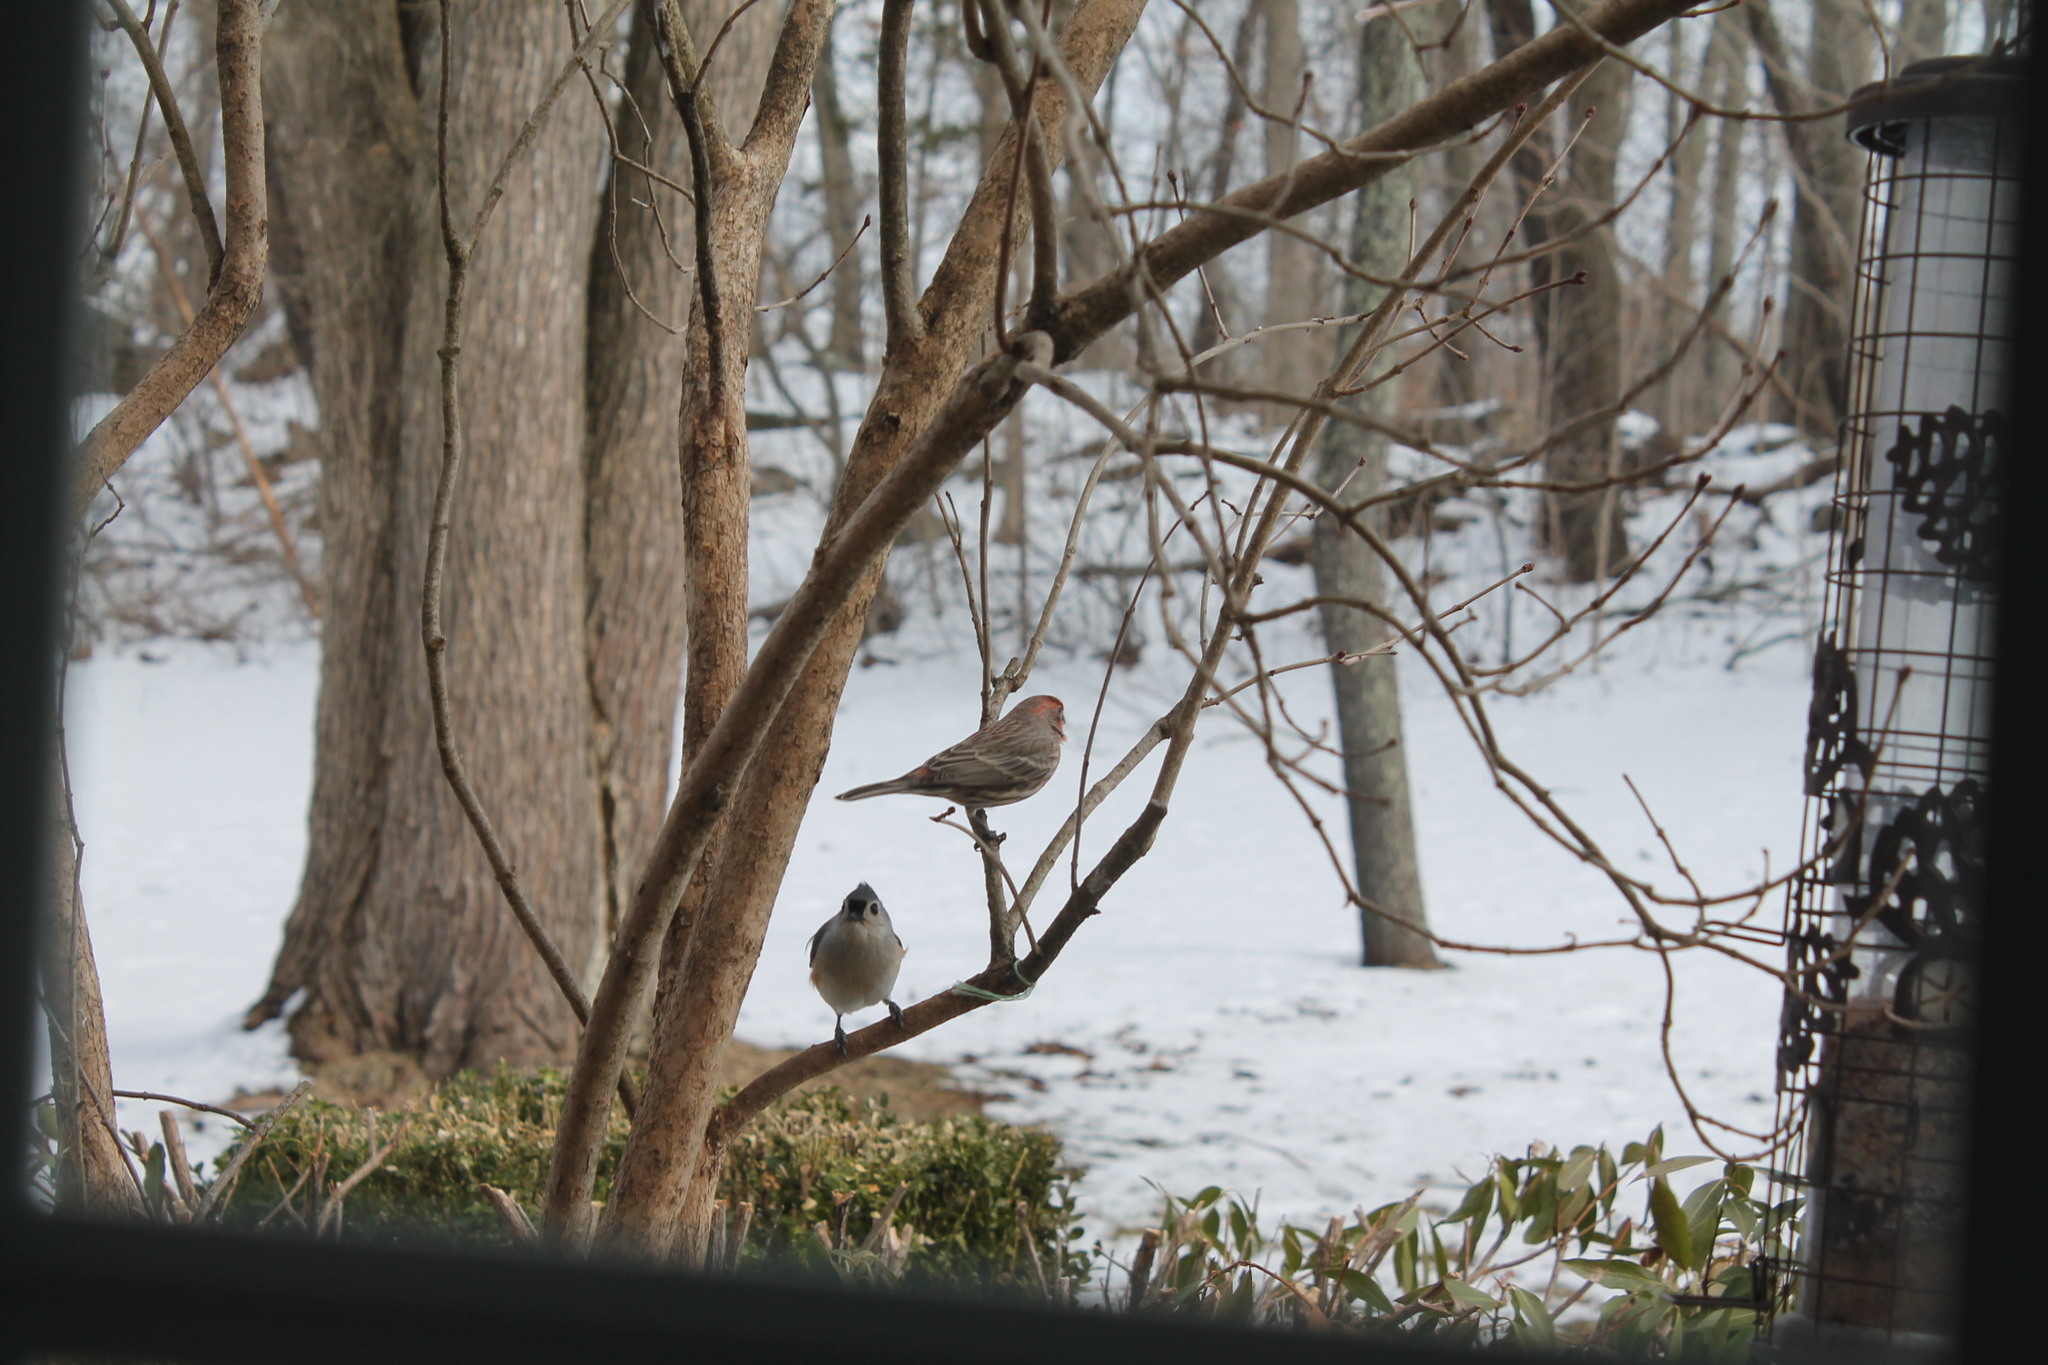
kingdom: Animalia
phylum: Chordata
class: Aves
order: Passeriformes
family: Fringillidae
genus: Haemorhous
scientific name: Haemorhous mexicanus
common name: House finch
